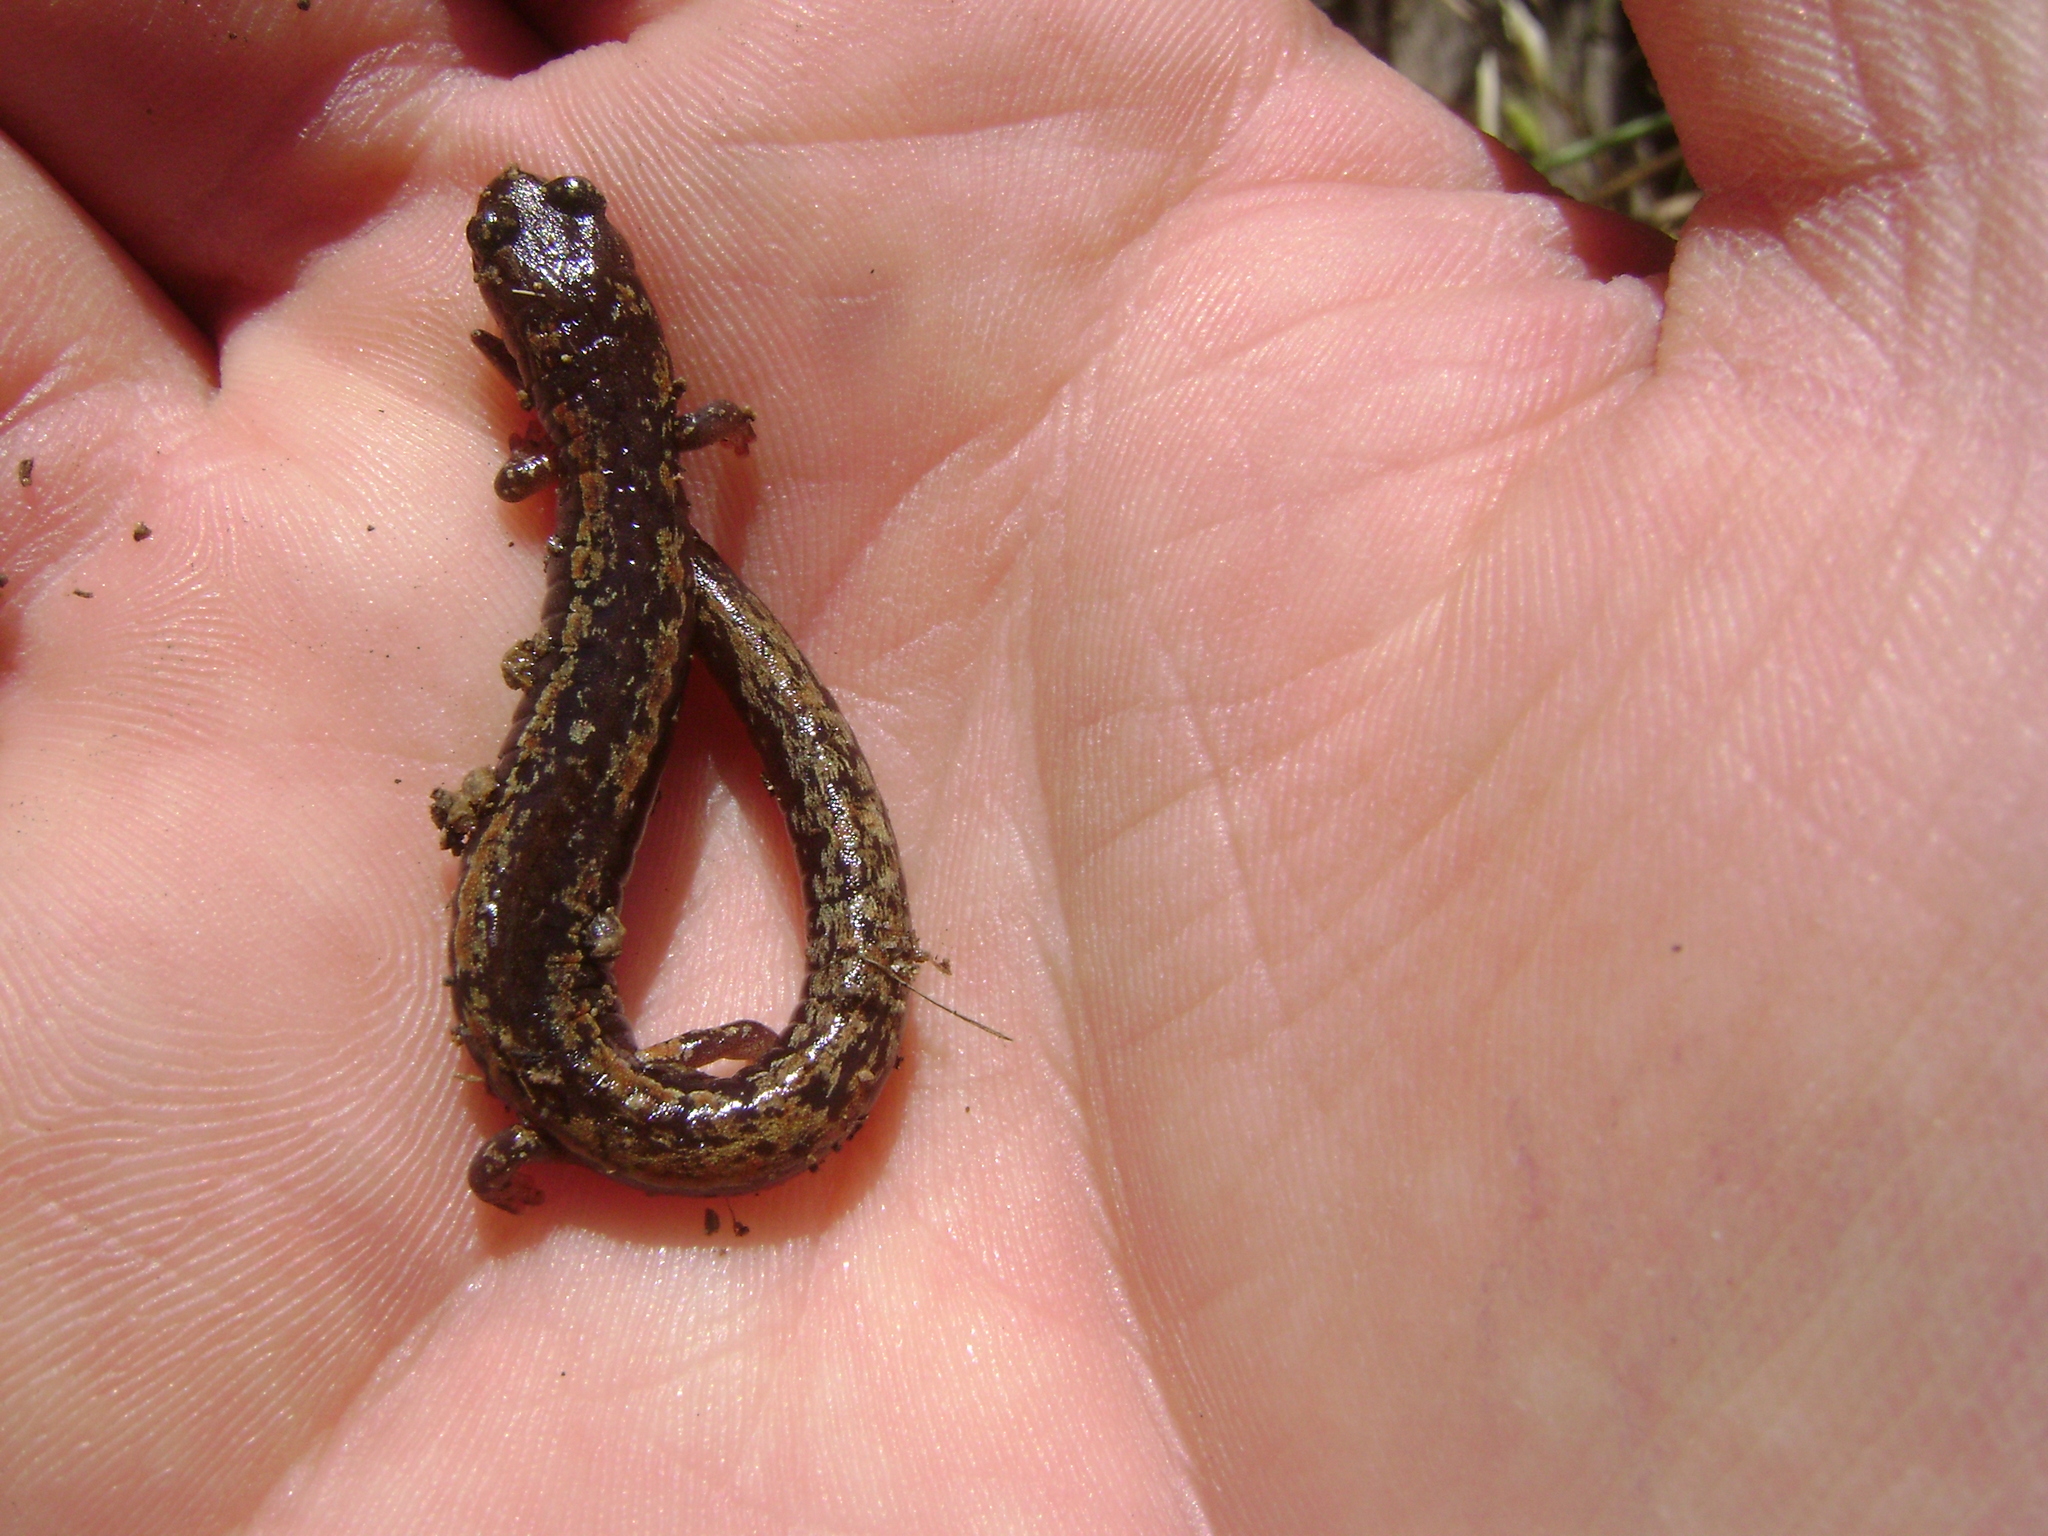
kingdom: Animalia
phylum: Chordata
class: Amphibia
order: Caudata
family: Plethodontidae
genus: Batrachoseps
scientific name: Batrachoseps pacificus
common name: Channel islands slender salamander
